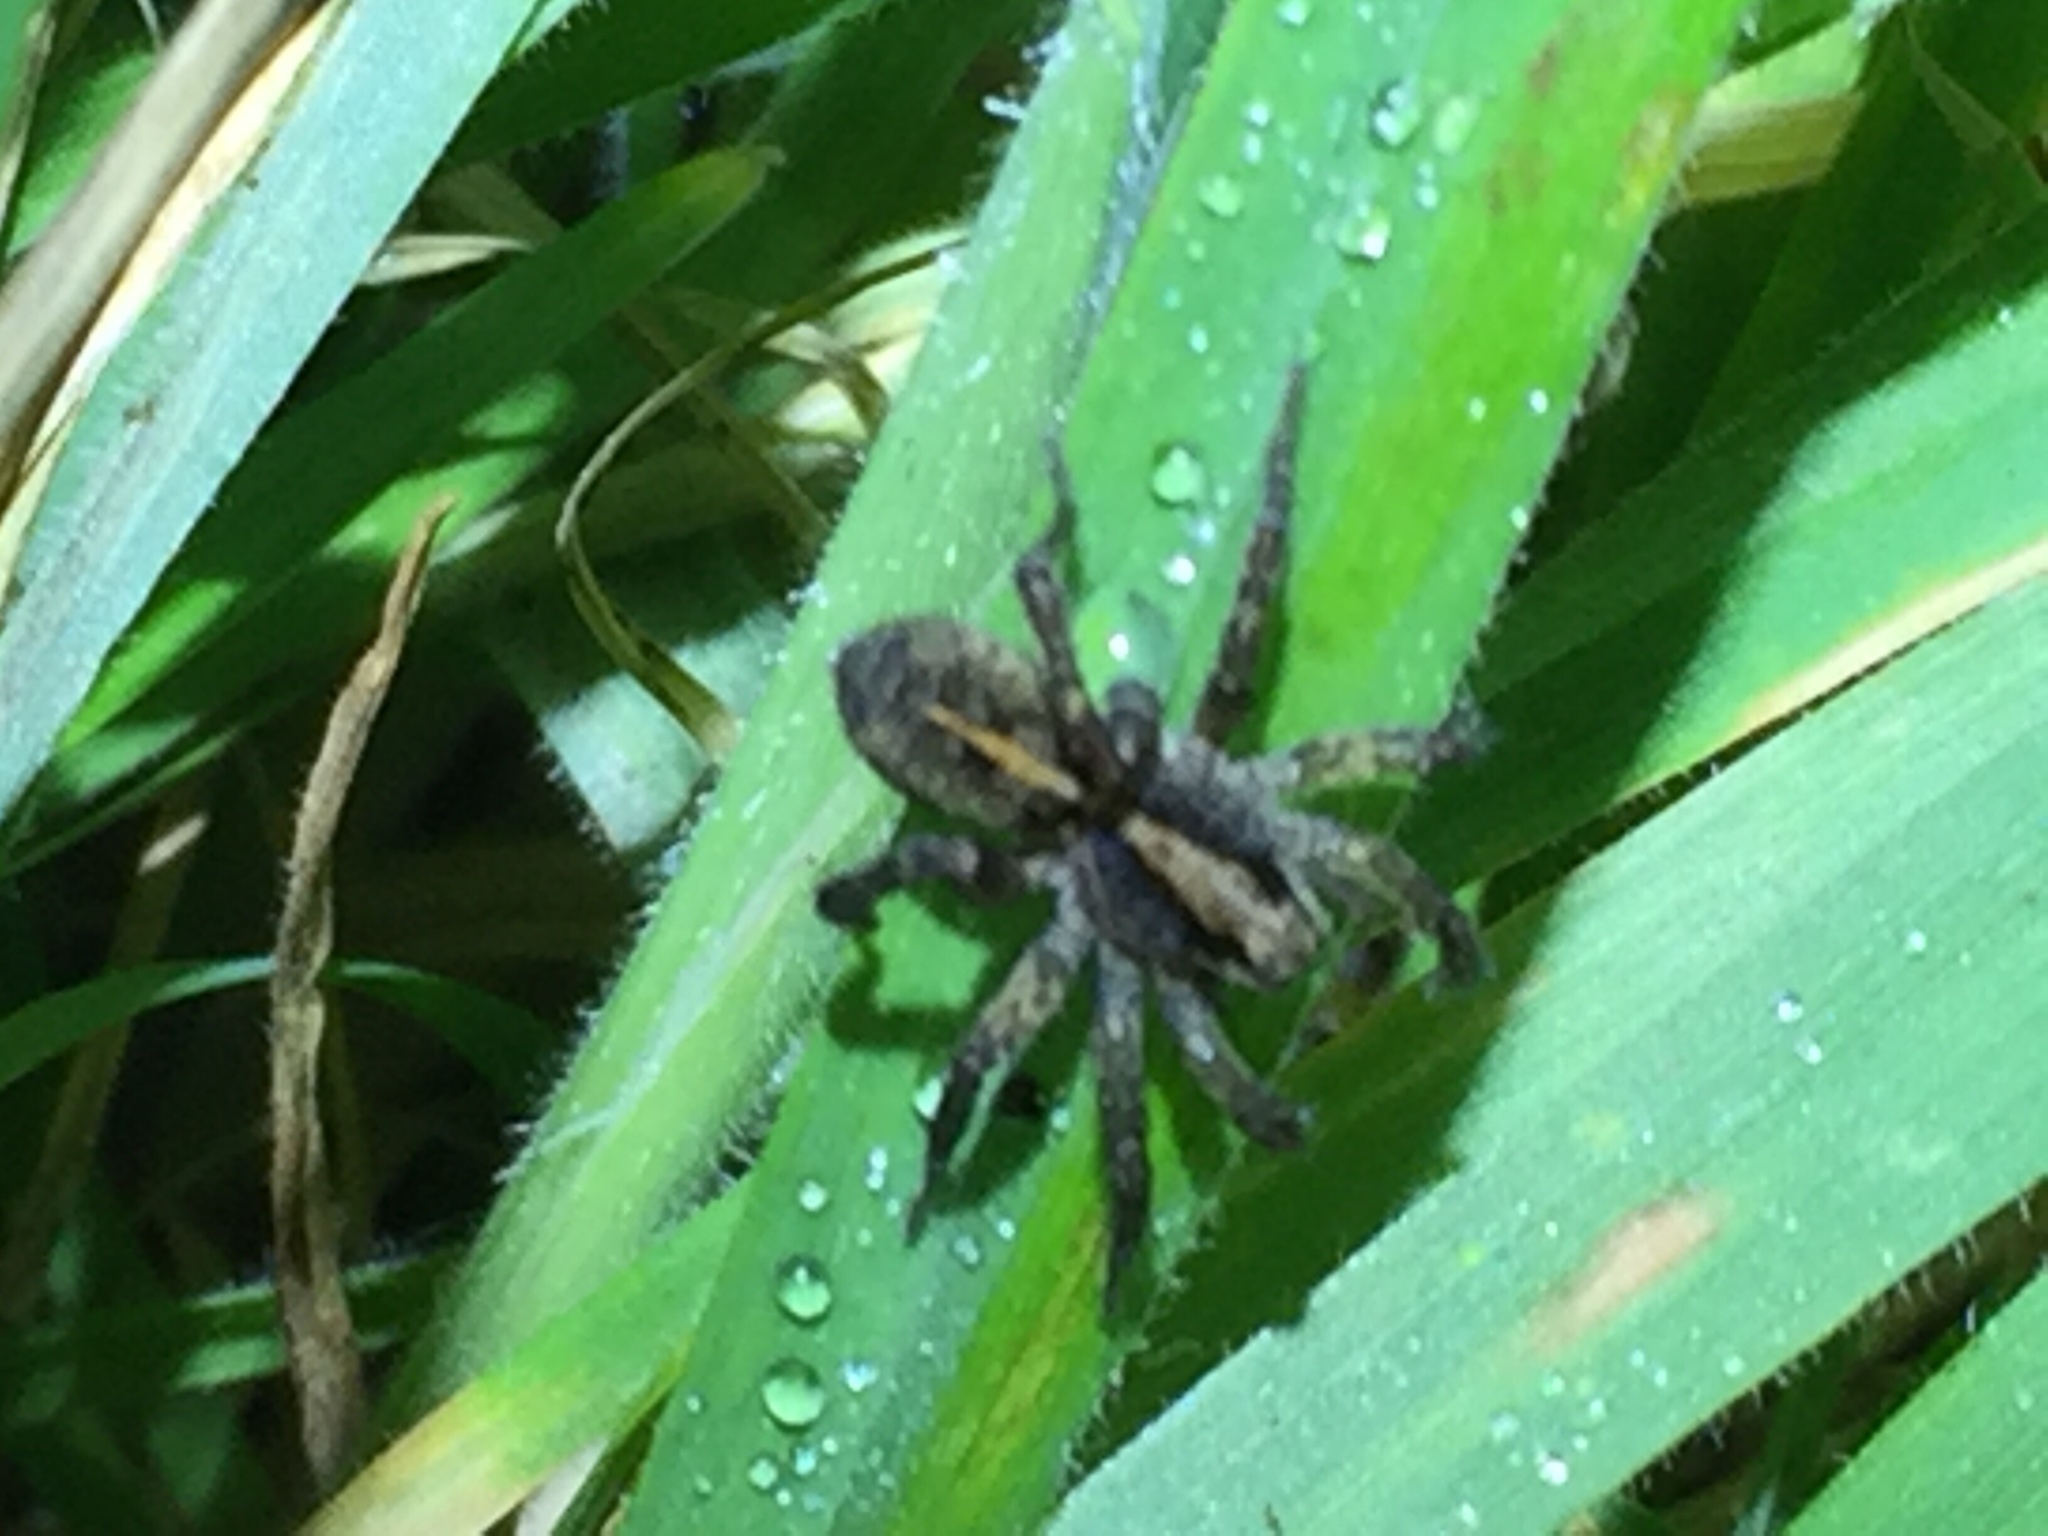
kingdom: Animalia
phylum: Arthropoda
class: Arachnida
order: Araneae
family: Lycosidae
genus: Anoteropsis
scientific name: Anoteropsis hilaris
